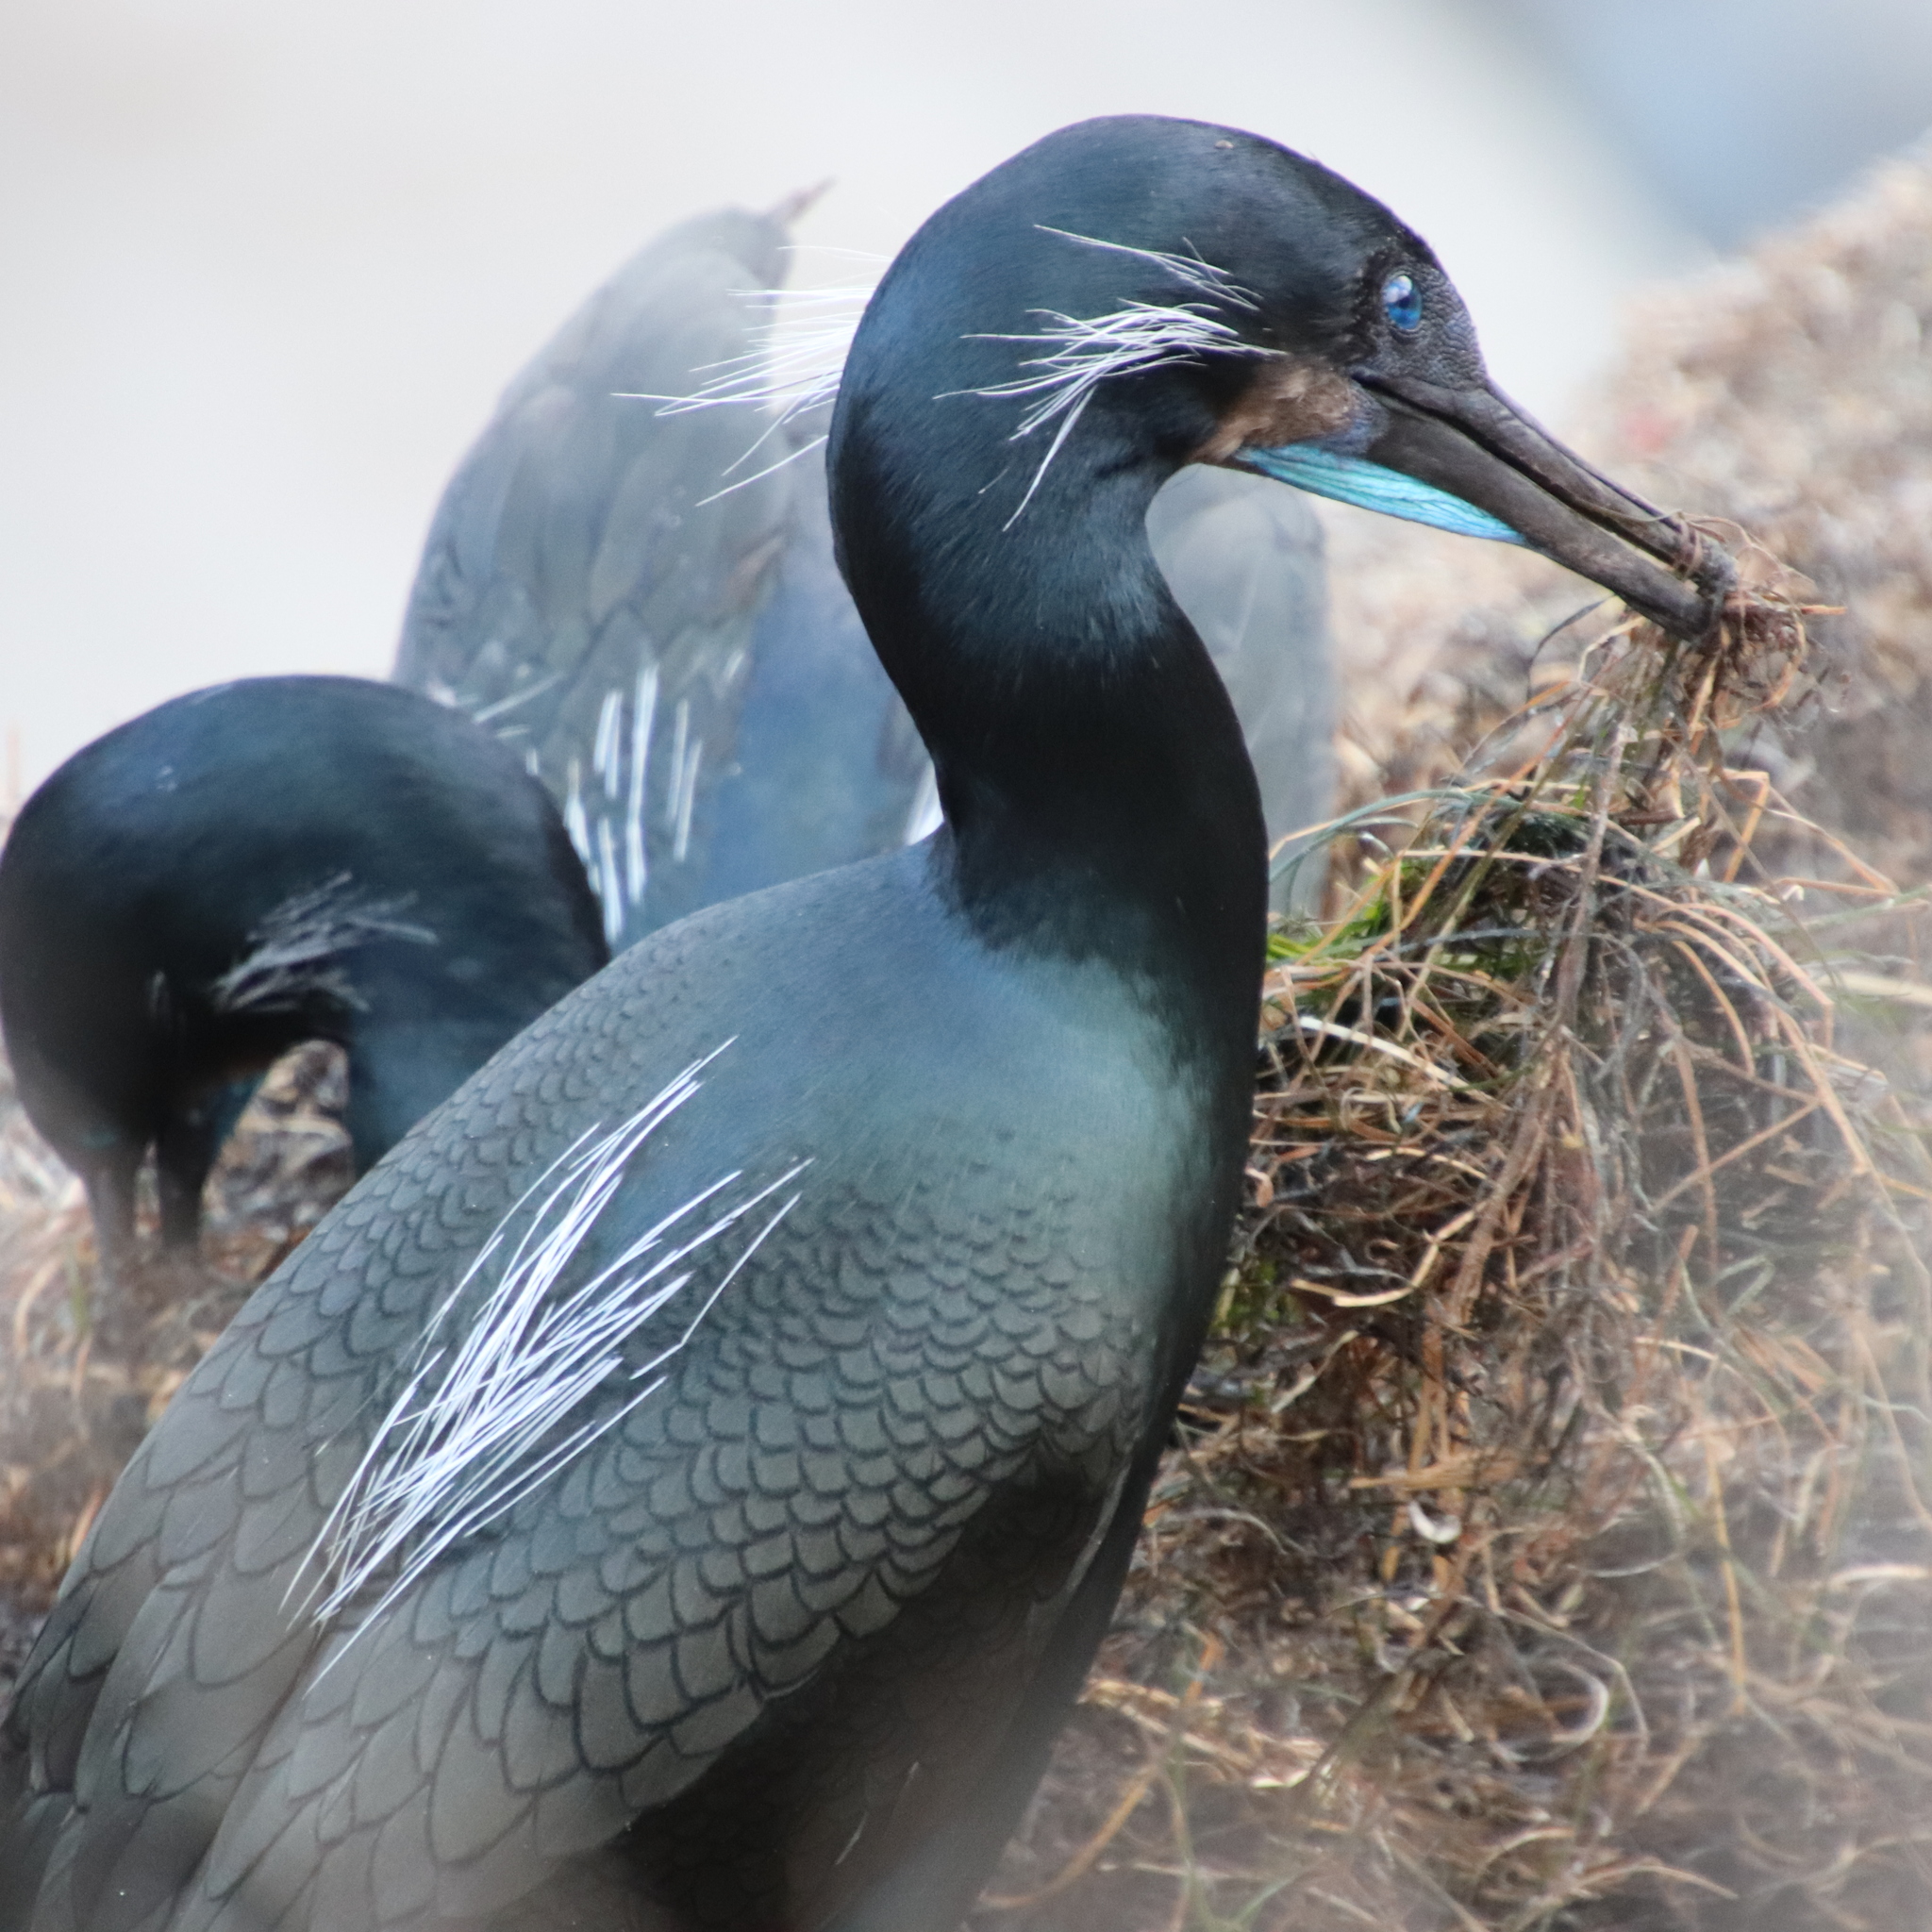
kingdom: Animalia
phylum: Chordata
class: Aves
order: Suliformes
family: Phalacrocoracidae
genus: Urile
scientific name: Urile penicillatus
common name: Brandt's cormorant
